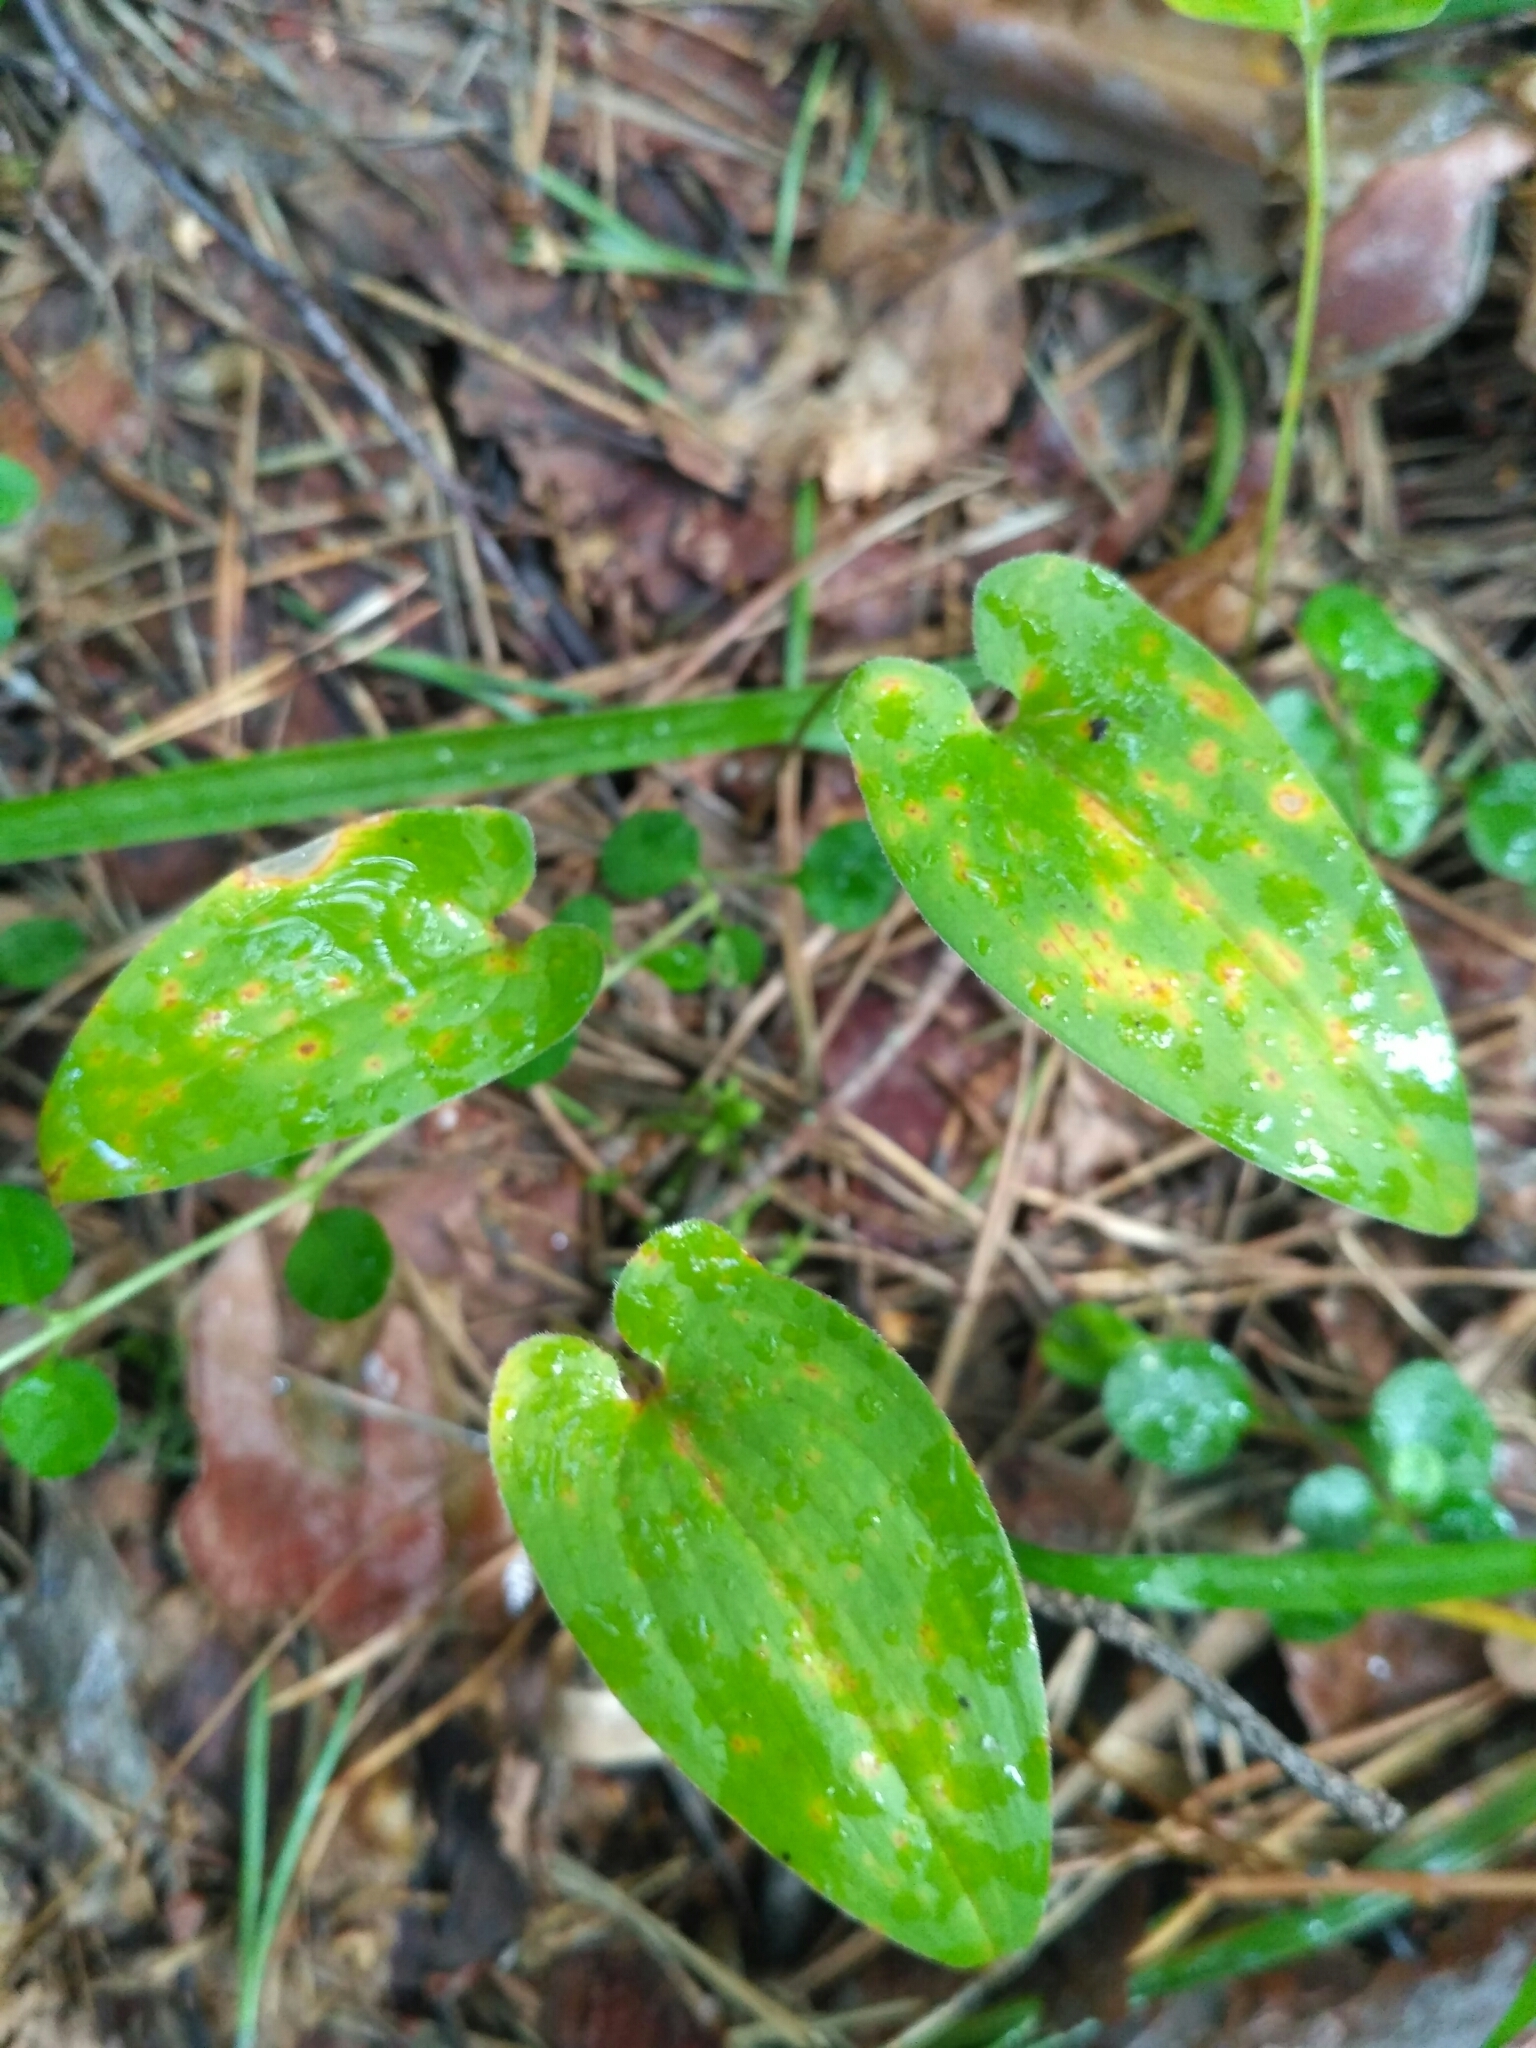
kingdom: Plantae
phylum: Tracheophyta
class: Liliopsida
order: Asparagales
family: Asparagaceae
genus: Maianthemum
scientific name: Maianthemum bifolium
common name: May lily
